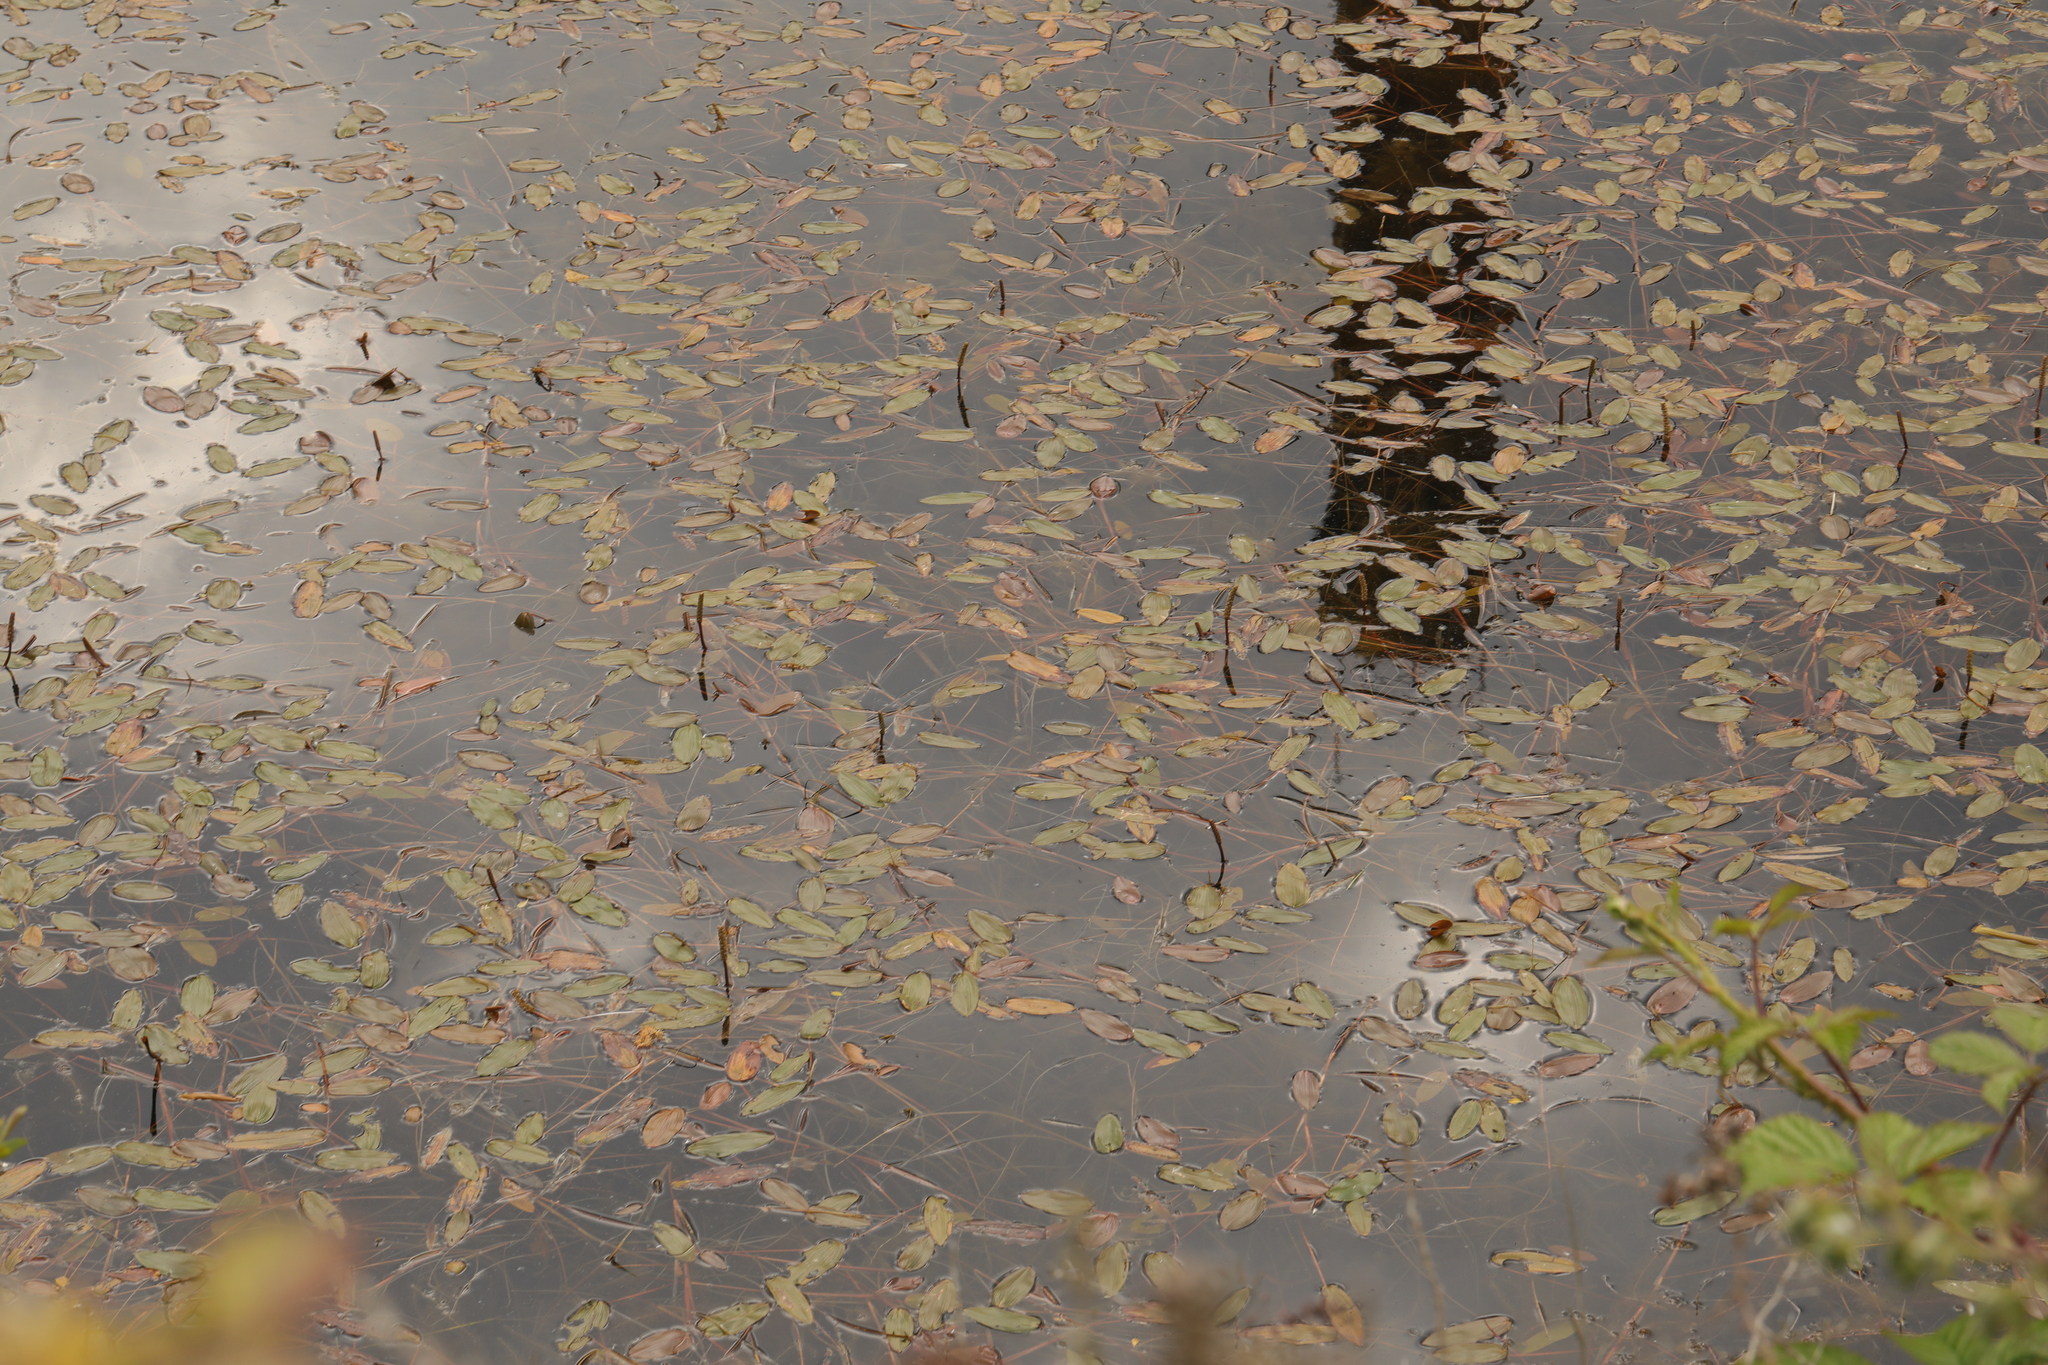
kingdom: Plantae
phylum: Tracheophyta
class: Liliopsida
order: Alismatales
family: Potamogetonaceae
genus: Potamogeton
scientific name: Potamogeton natans
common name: Broad-leaved pondweed
